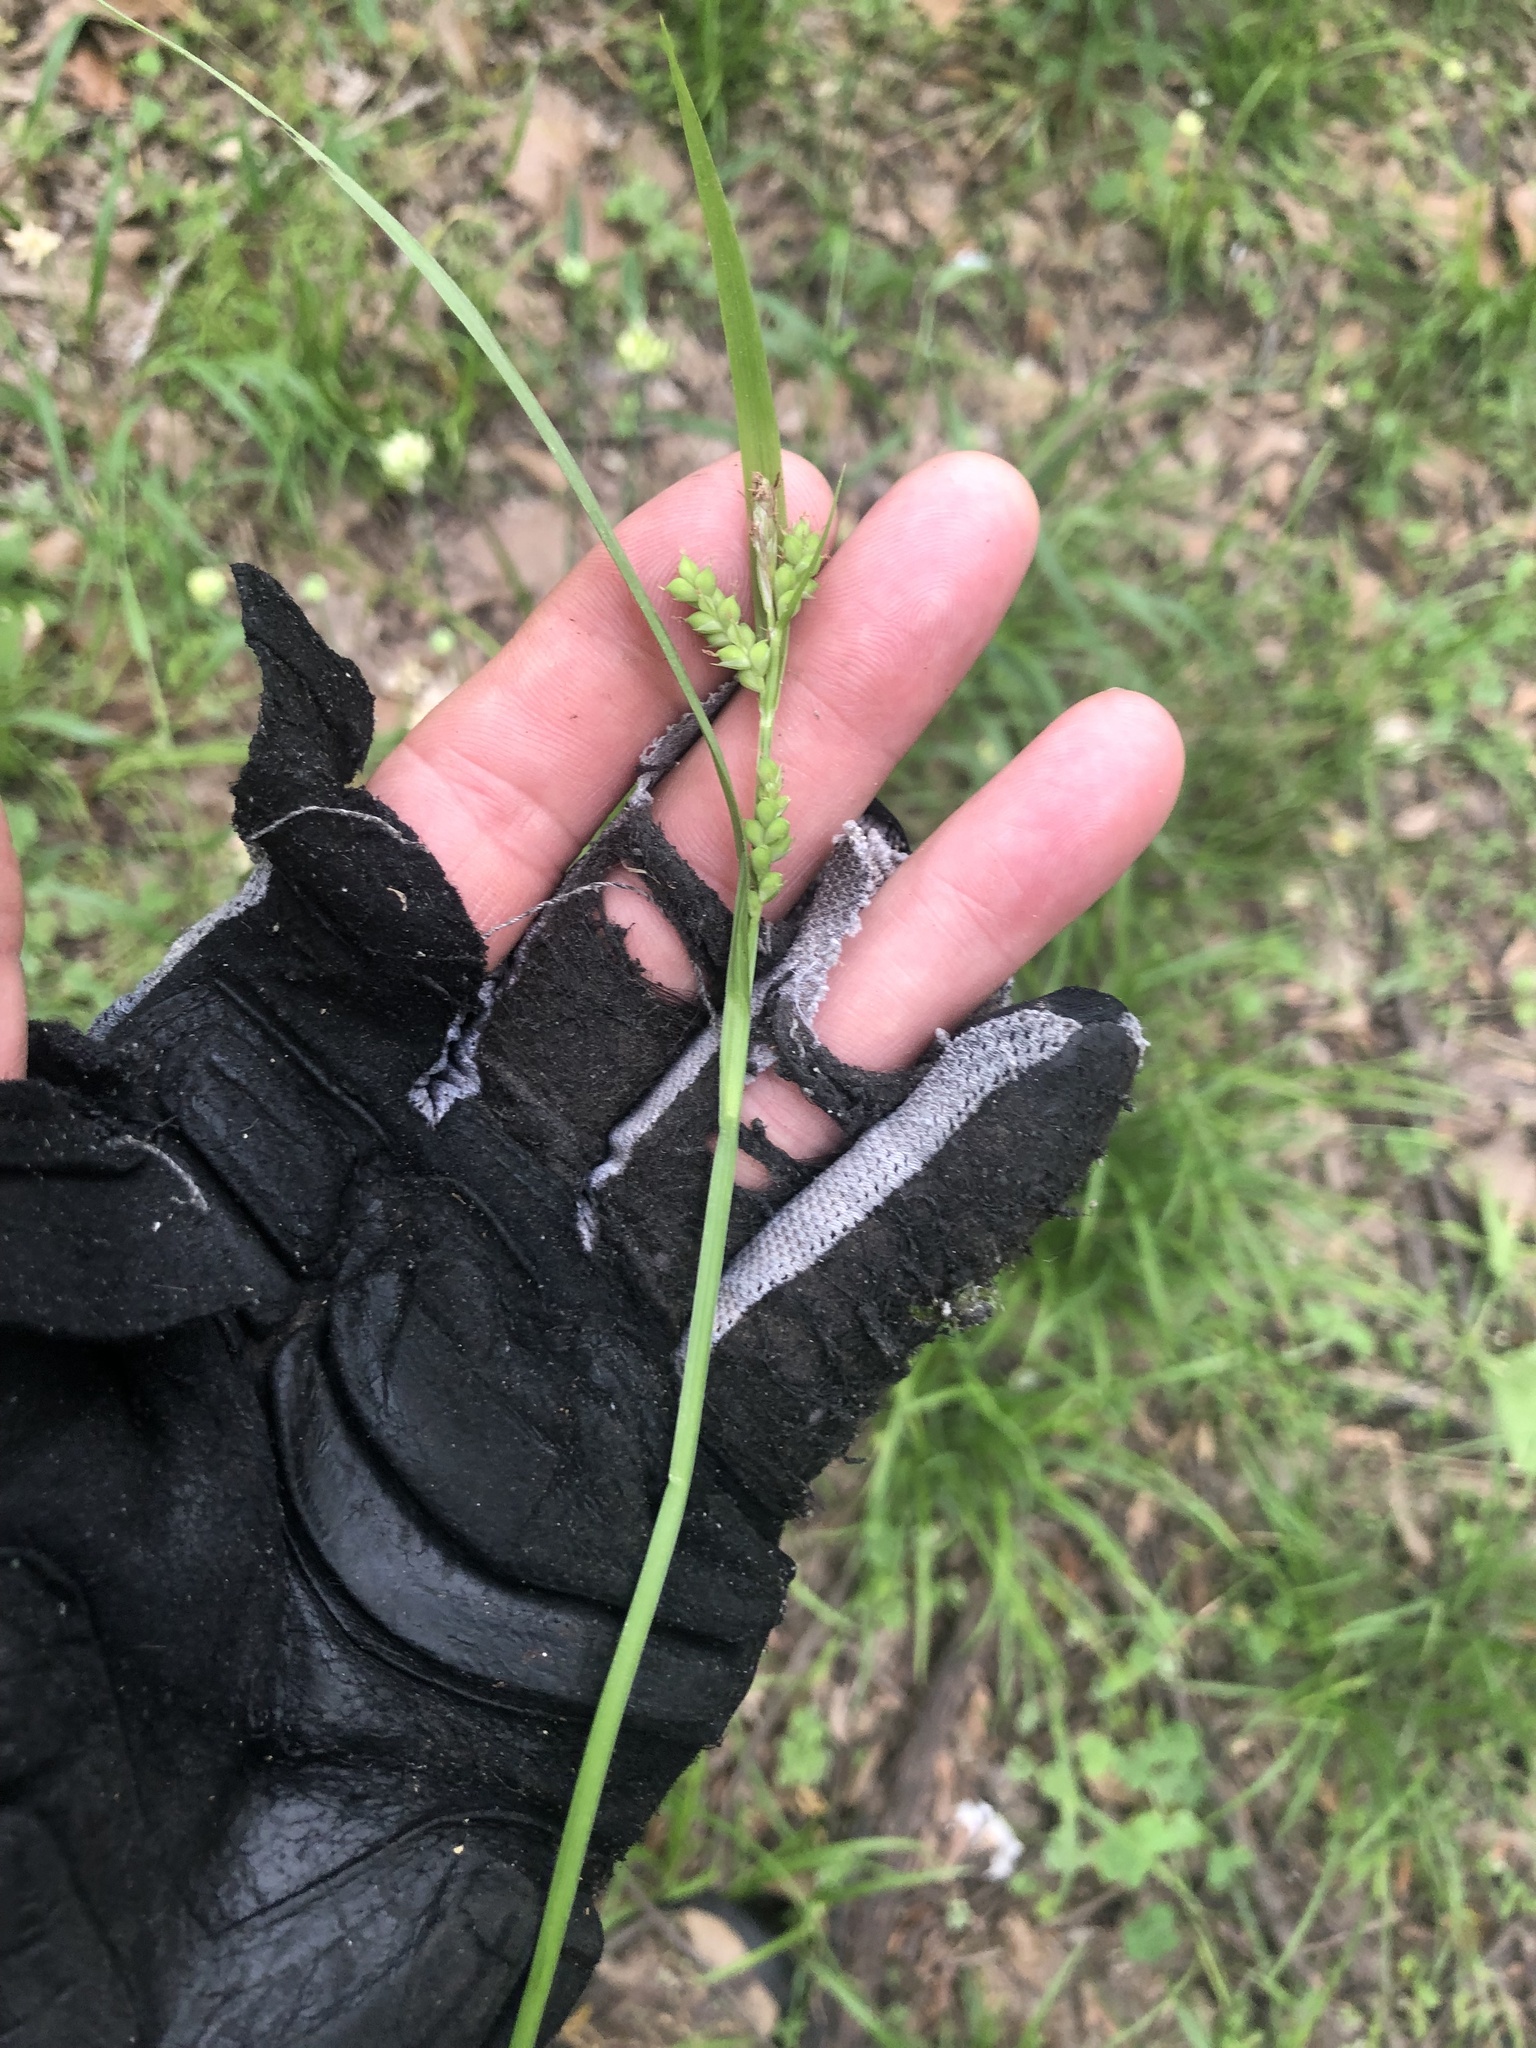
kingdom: Plantae
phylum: Tracheophyta
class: Liliopsida
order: Poales
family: Cyperaceae
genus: Carex
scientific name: Carex blanda
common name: Bland sedge
